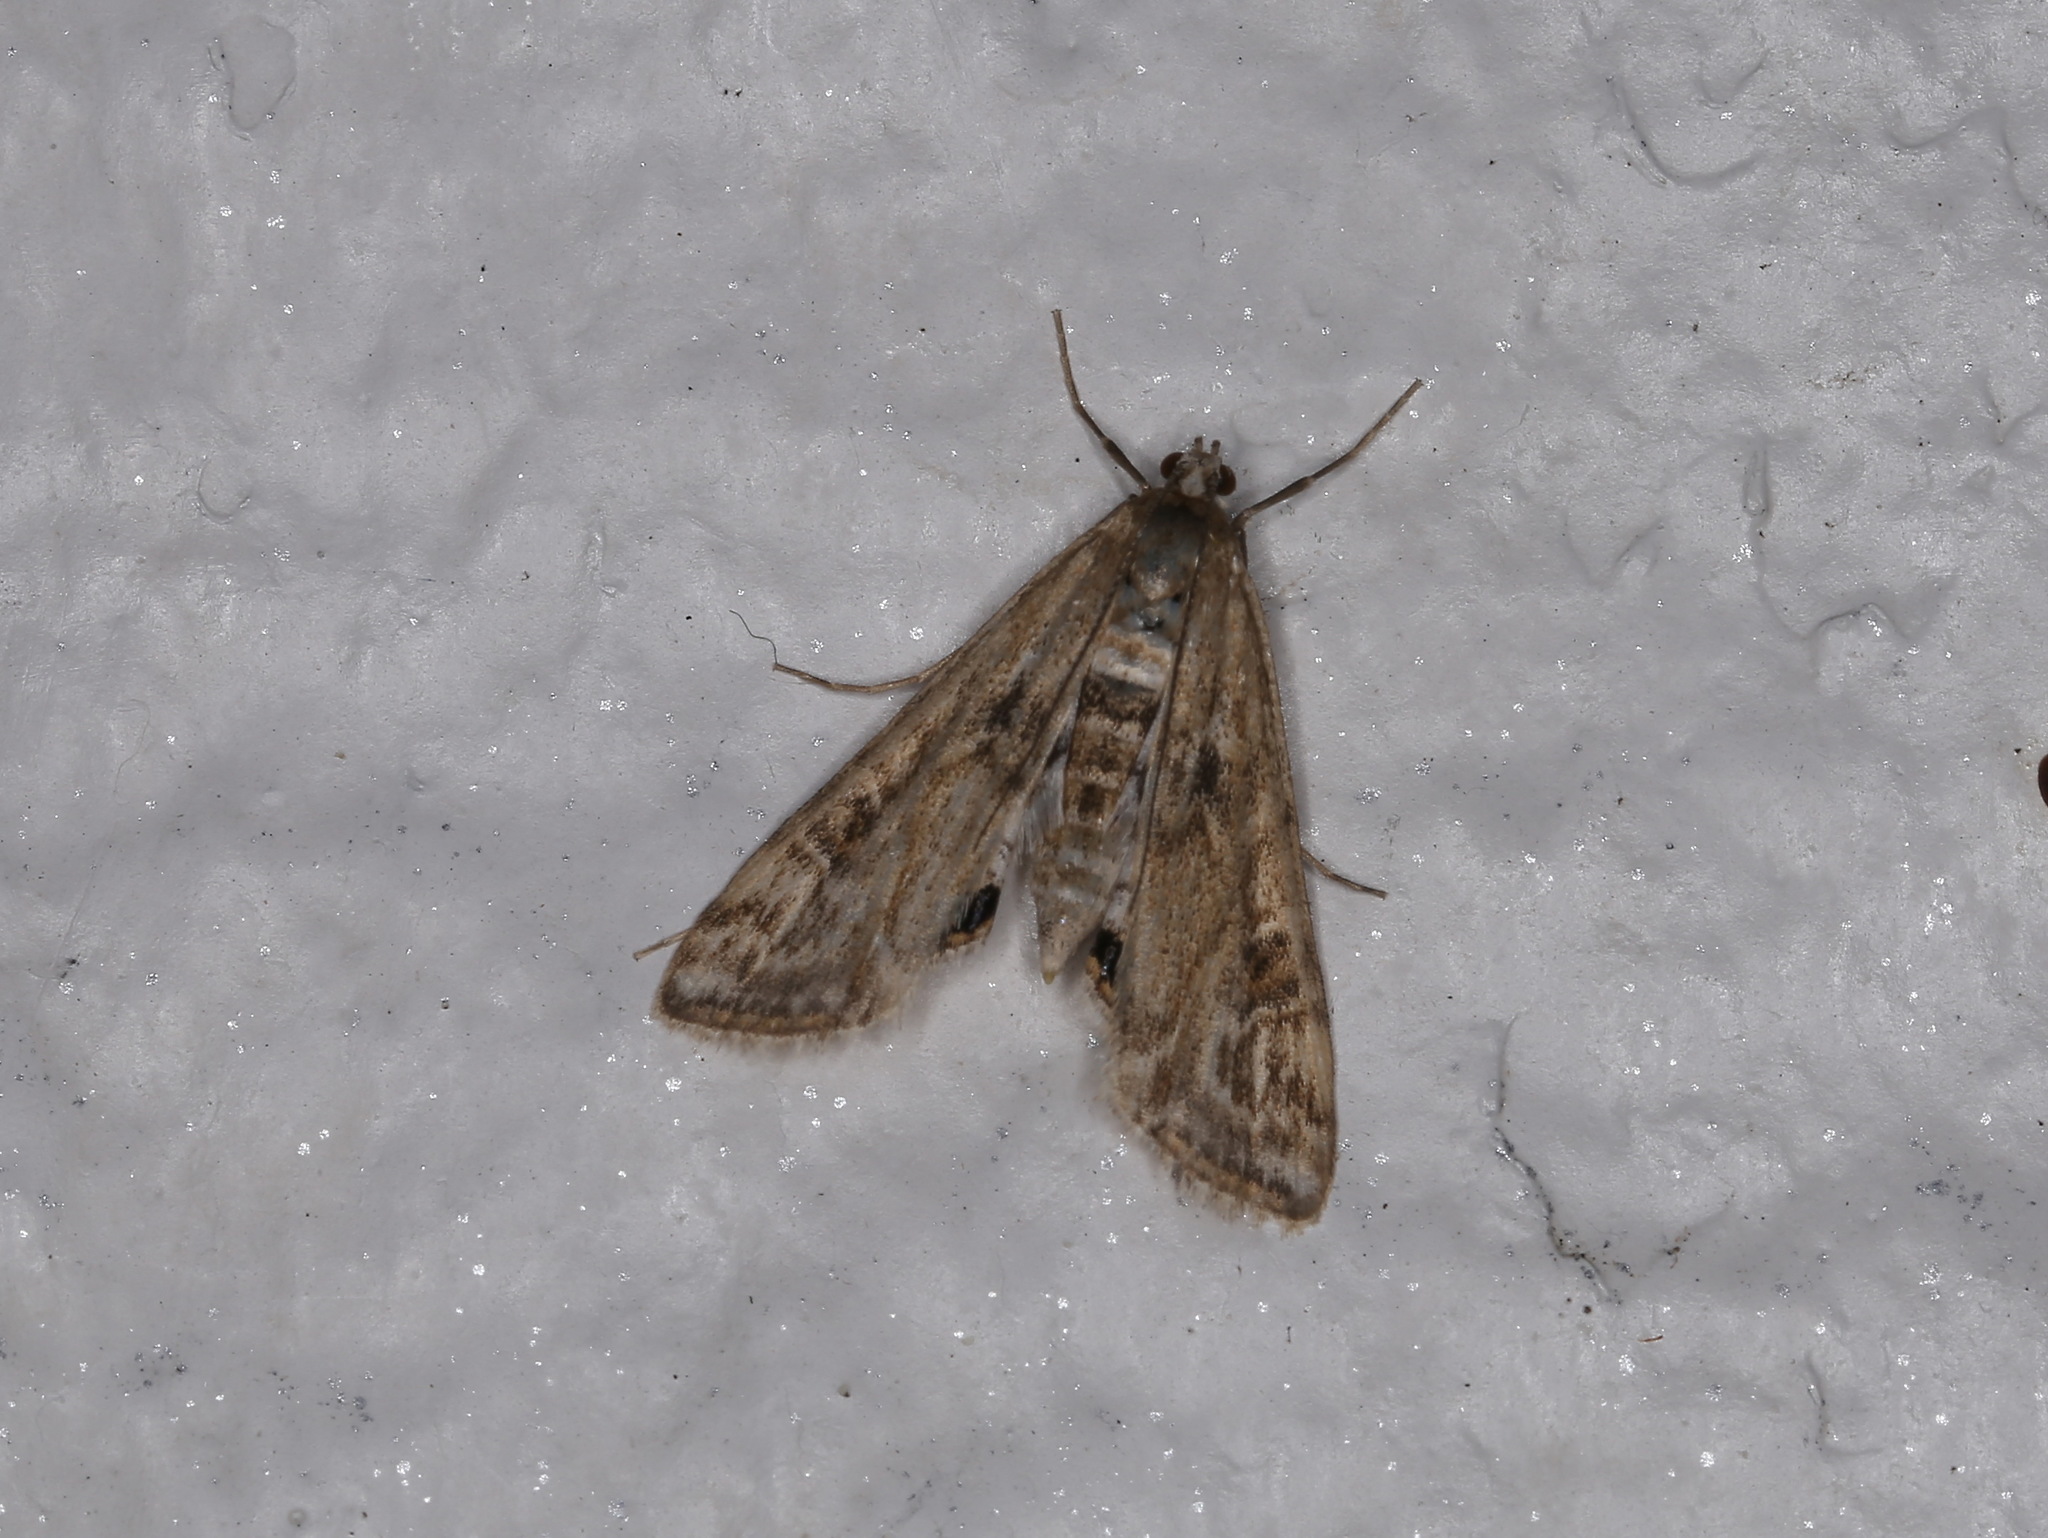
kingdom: Animalia
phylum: Arthropoda
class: Insecta
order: Lepidoptera
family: Crambidae
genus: Cataclysta
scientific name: Cataclysta lemnata
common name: Small china-mark
